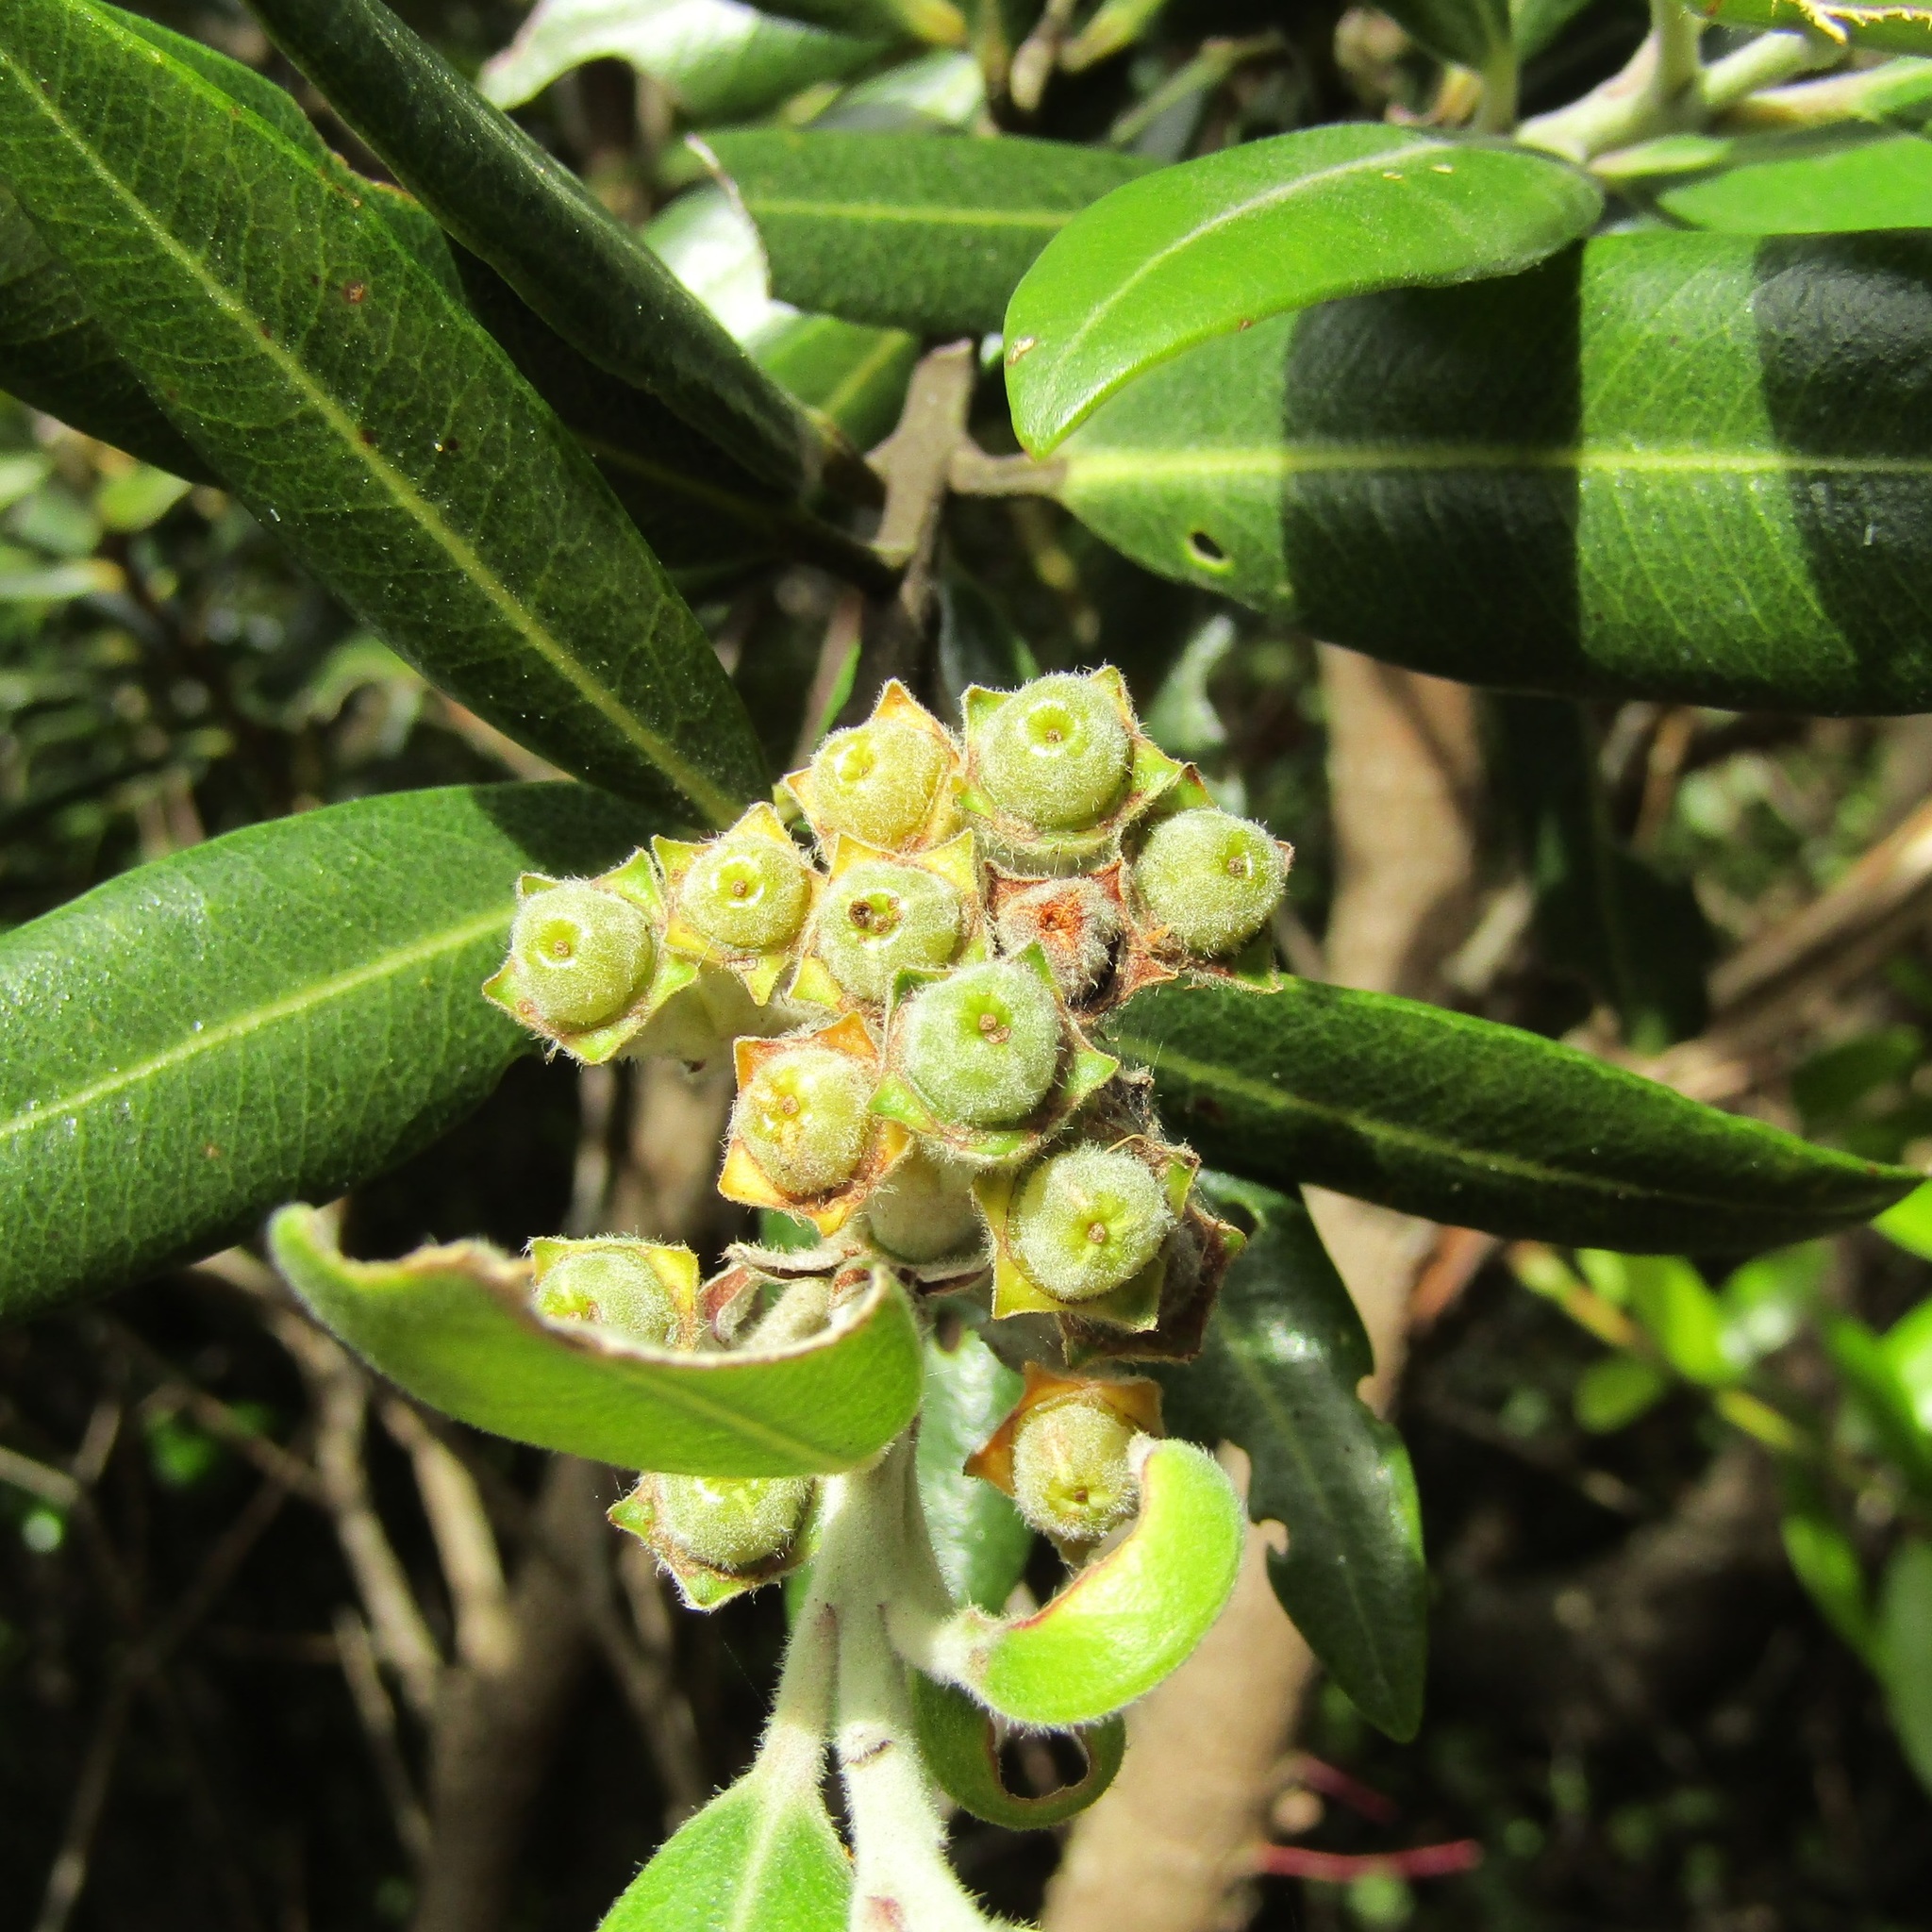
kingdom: Plantae
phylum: Tracheophyta
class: Magnoliopsida
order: Myrtales
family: Myrtaceae
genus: Metrosideros
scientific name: Metrosideros excelsa
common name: New zealand christmastree
